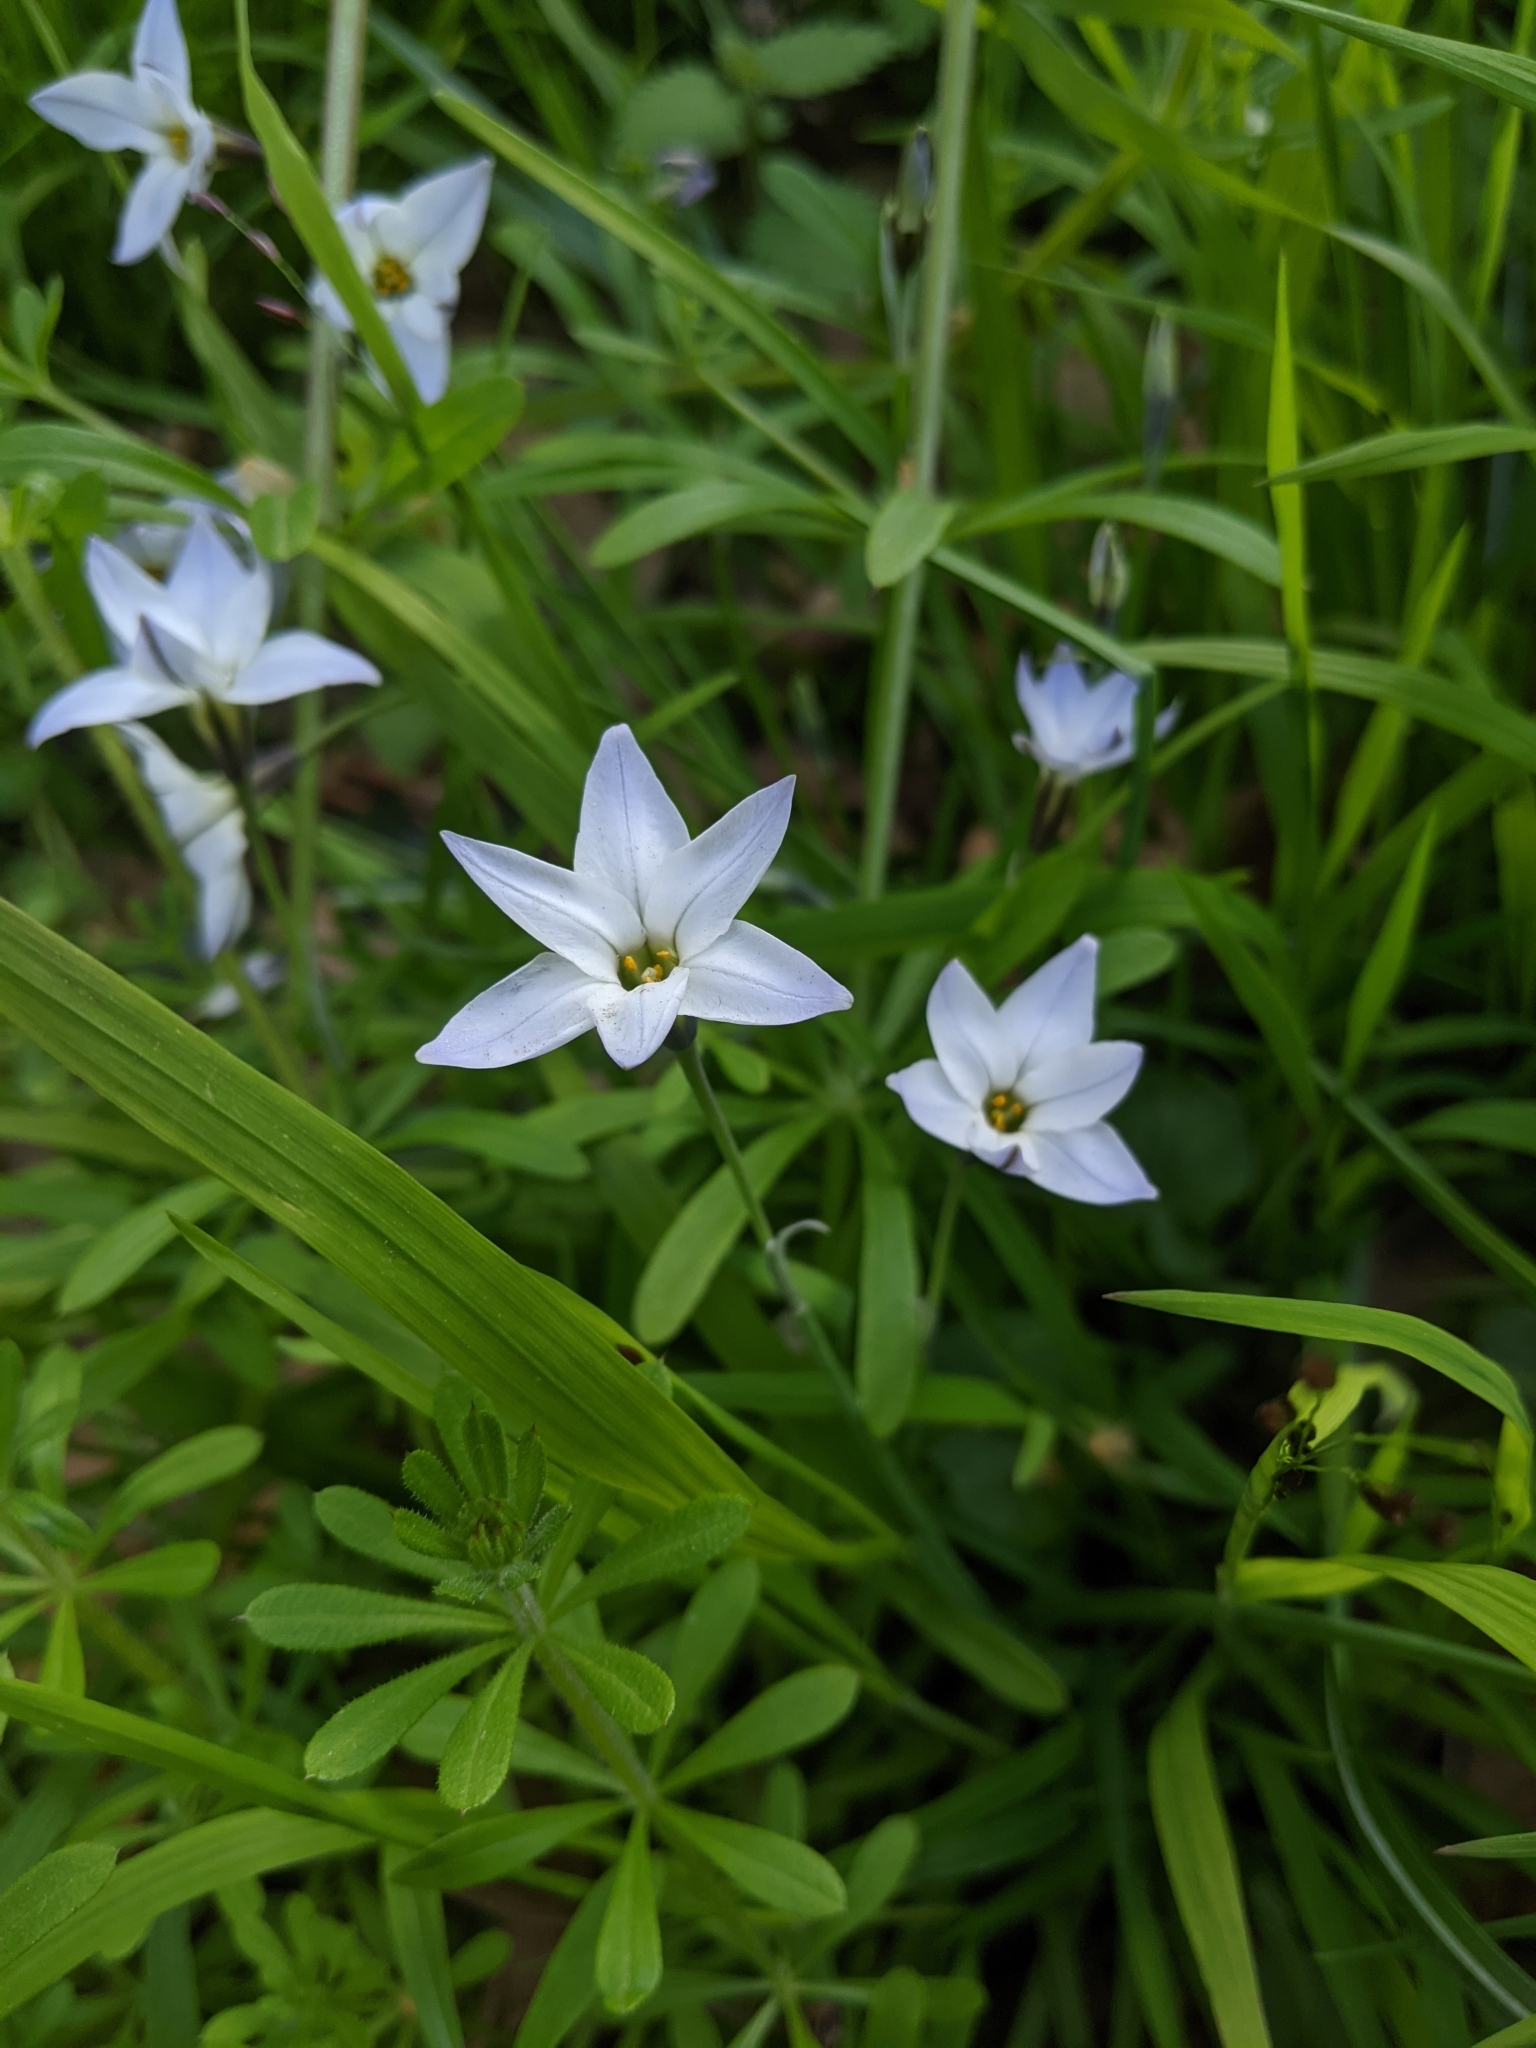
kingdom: Plantae
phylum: Tracheophyta
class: Liliopsida
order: Asparagales
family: Amaryllidaceae
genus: Ipheion
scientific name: Ipheion uniflorum
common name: Spring starflower
